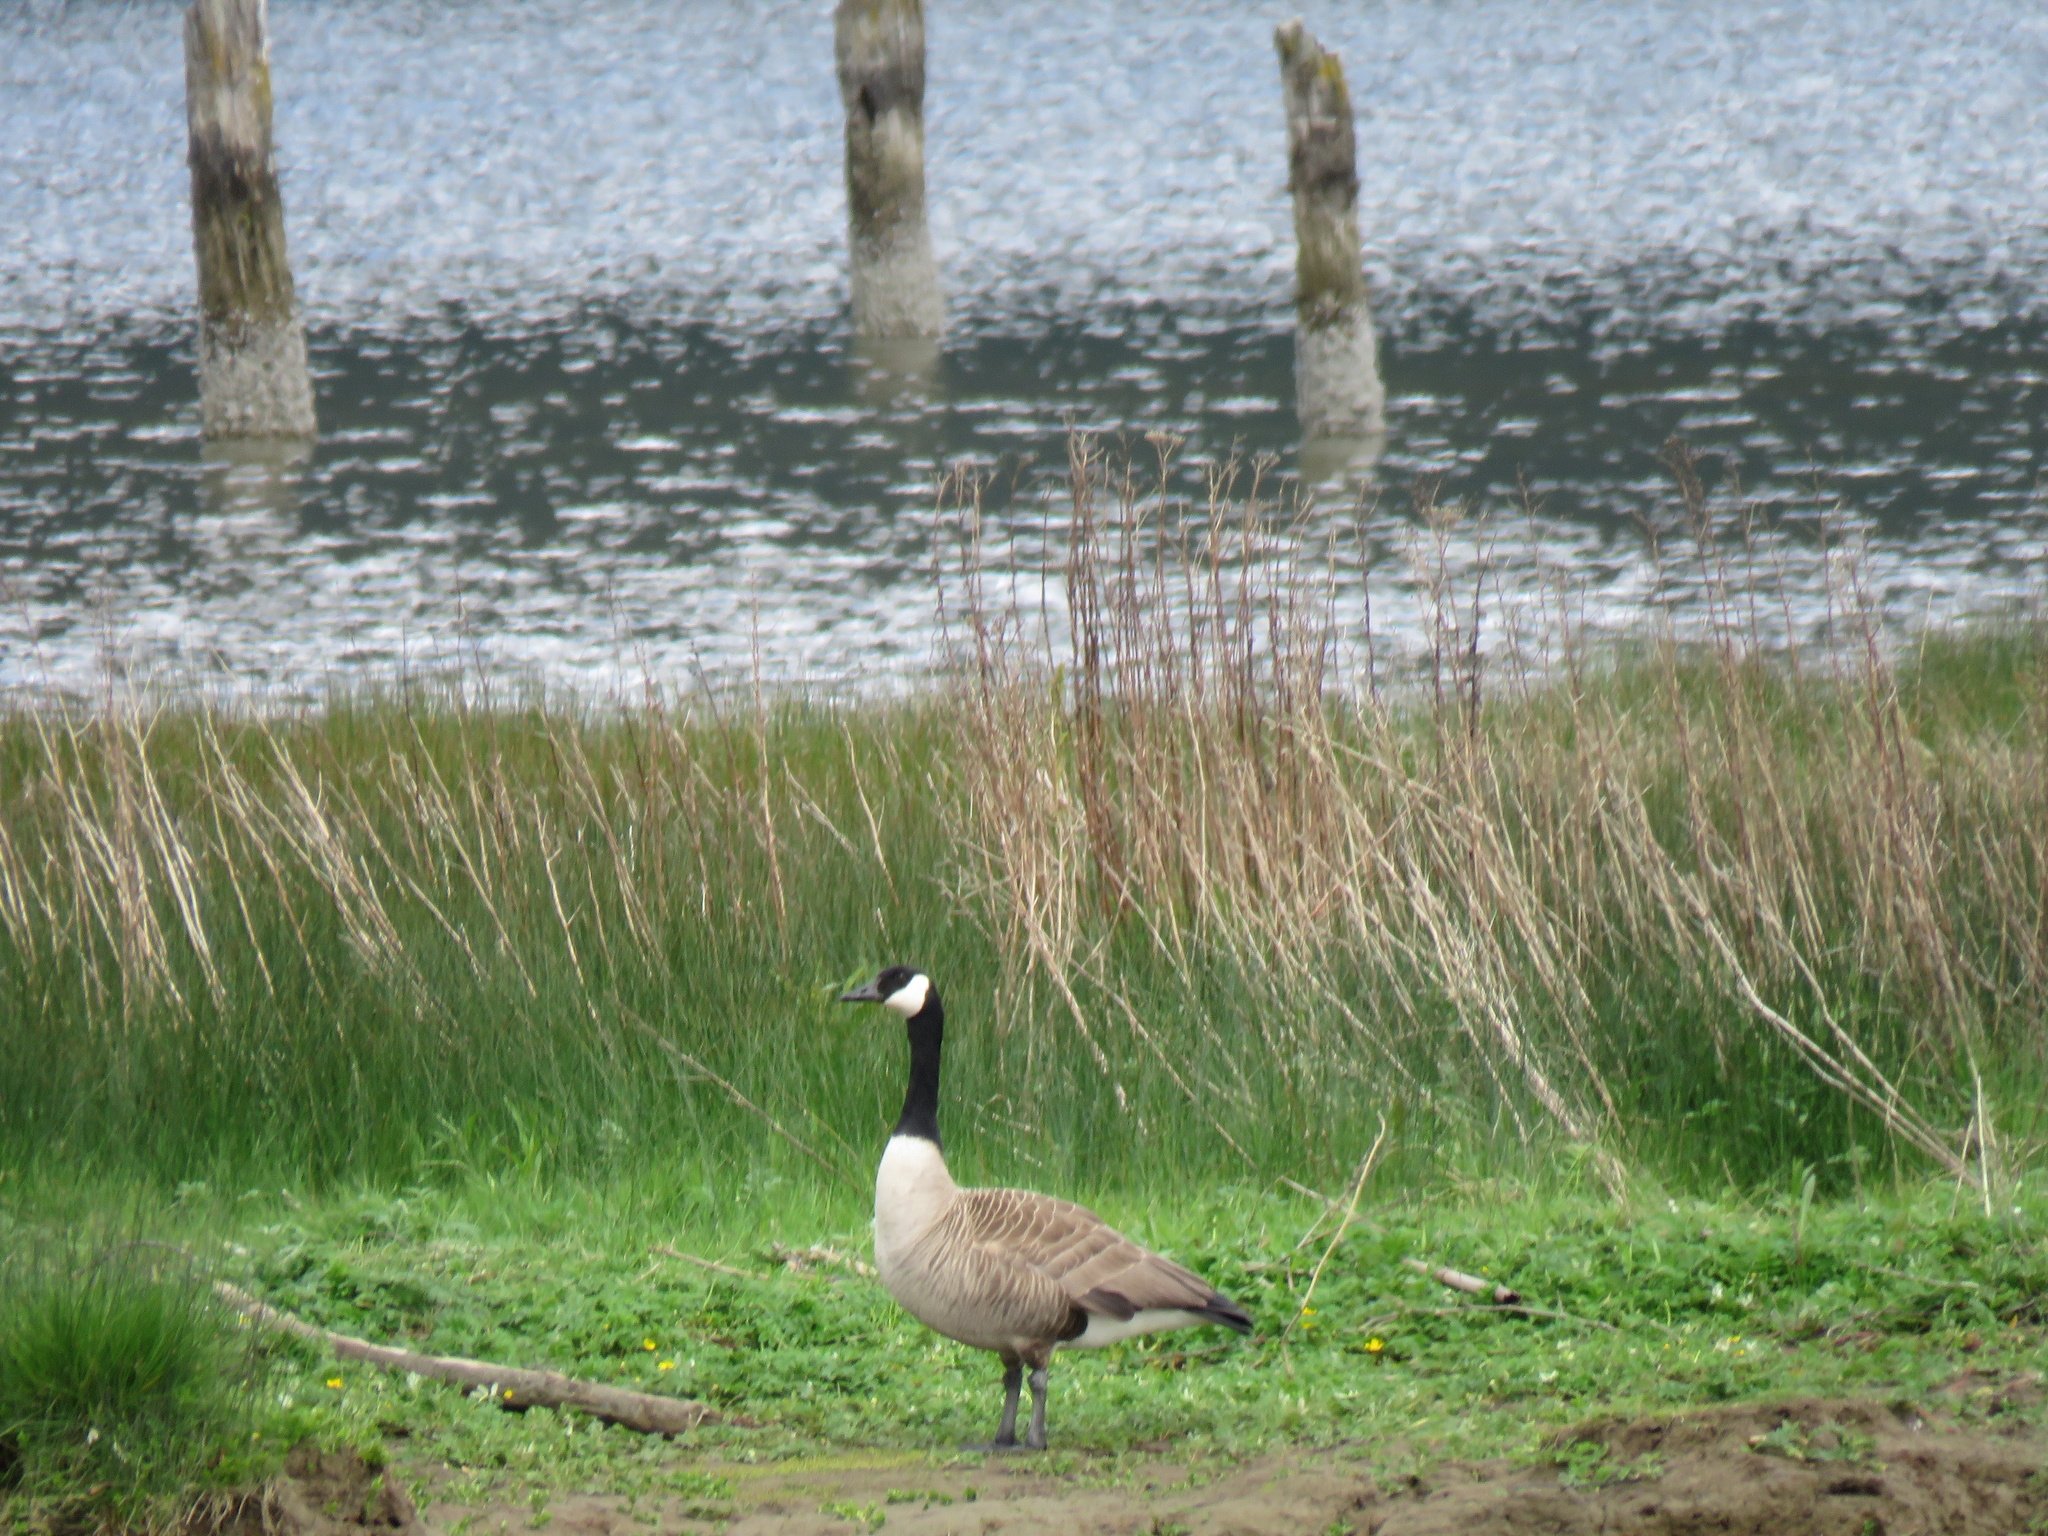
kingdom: Animalia
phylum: Chordata
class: Aves
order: Anseriformes
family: Anatidae
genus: Branta
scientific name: Branta canadensis
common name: Canada goose
